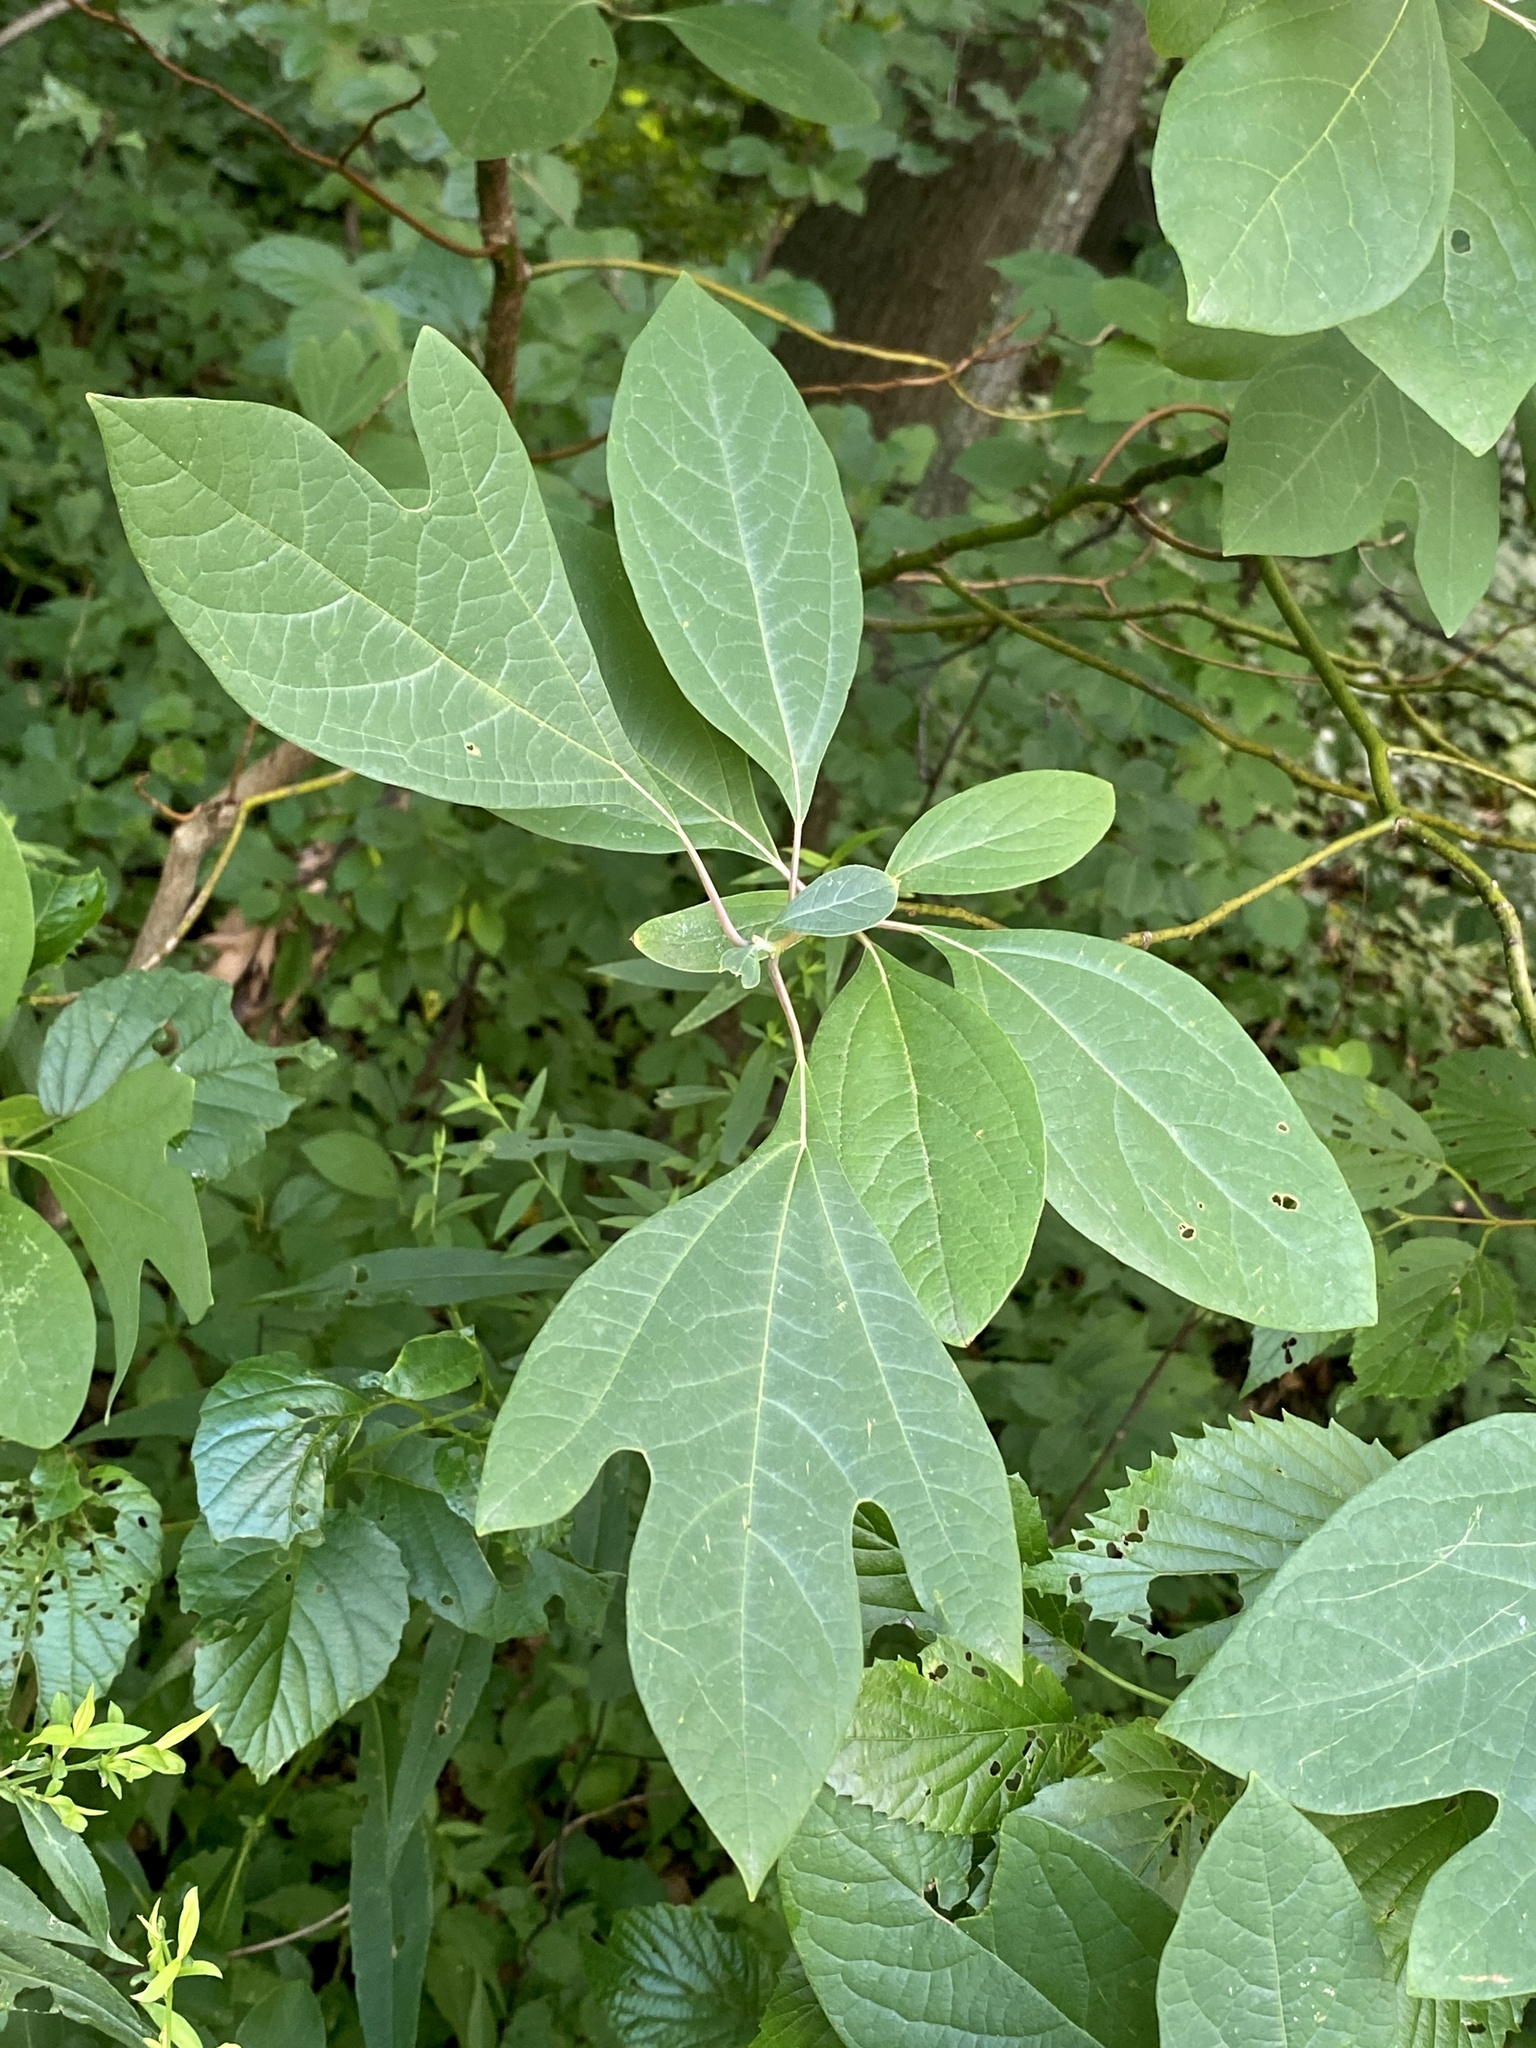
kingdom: Plantae
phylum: Tracheophyta
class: Magnoliopsida
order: Laurales
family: Lauraceae
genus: Sassafras
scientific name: Sassafras albidum
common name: Sassafras
